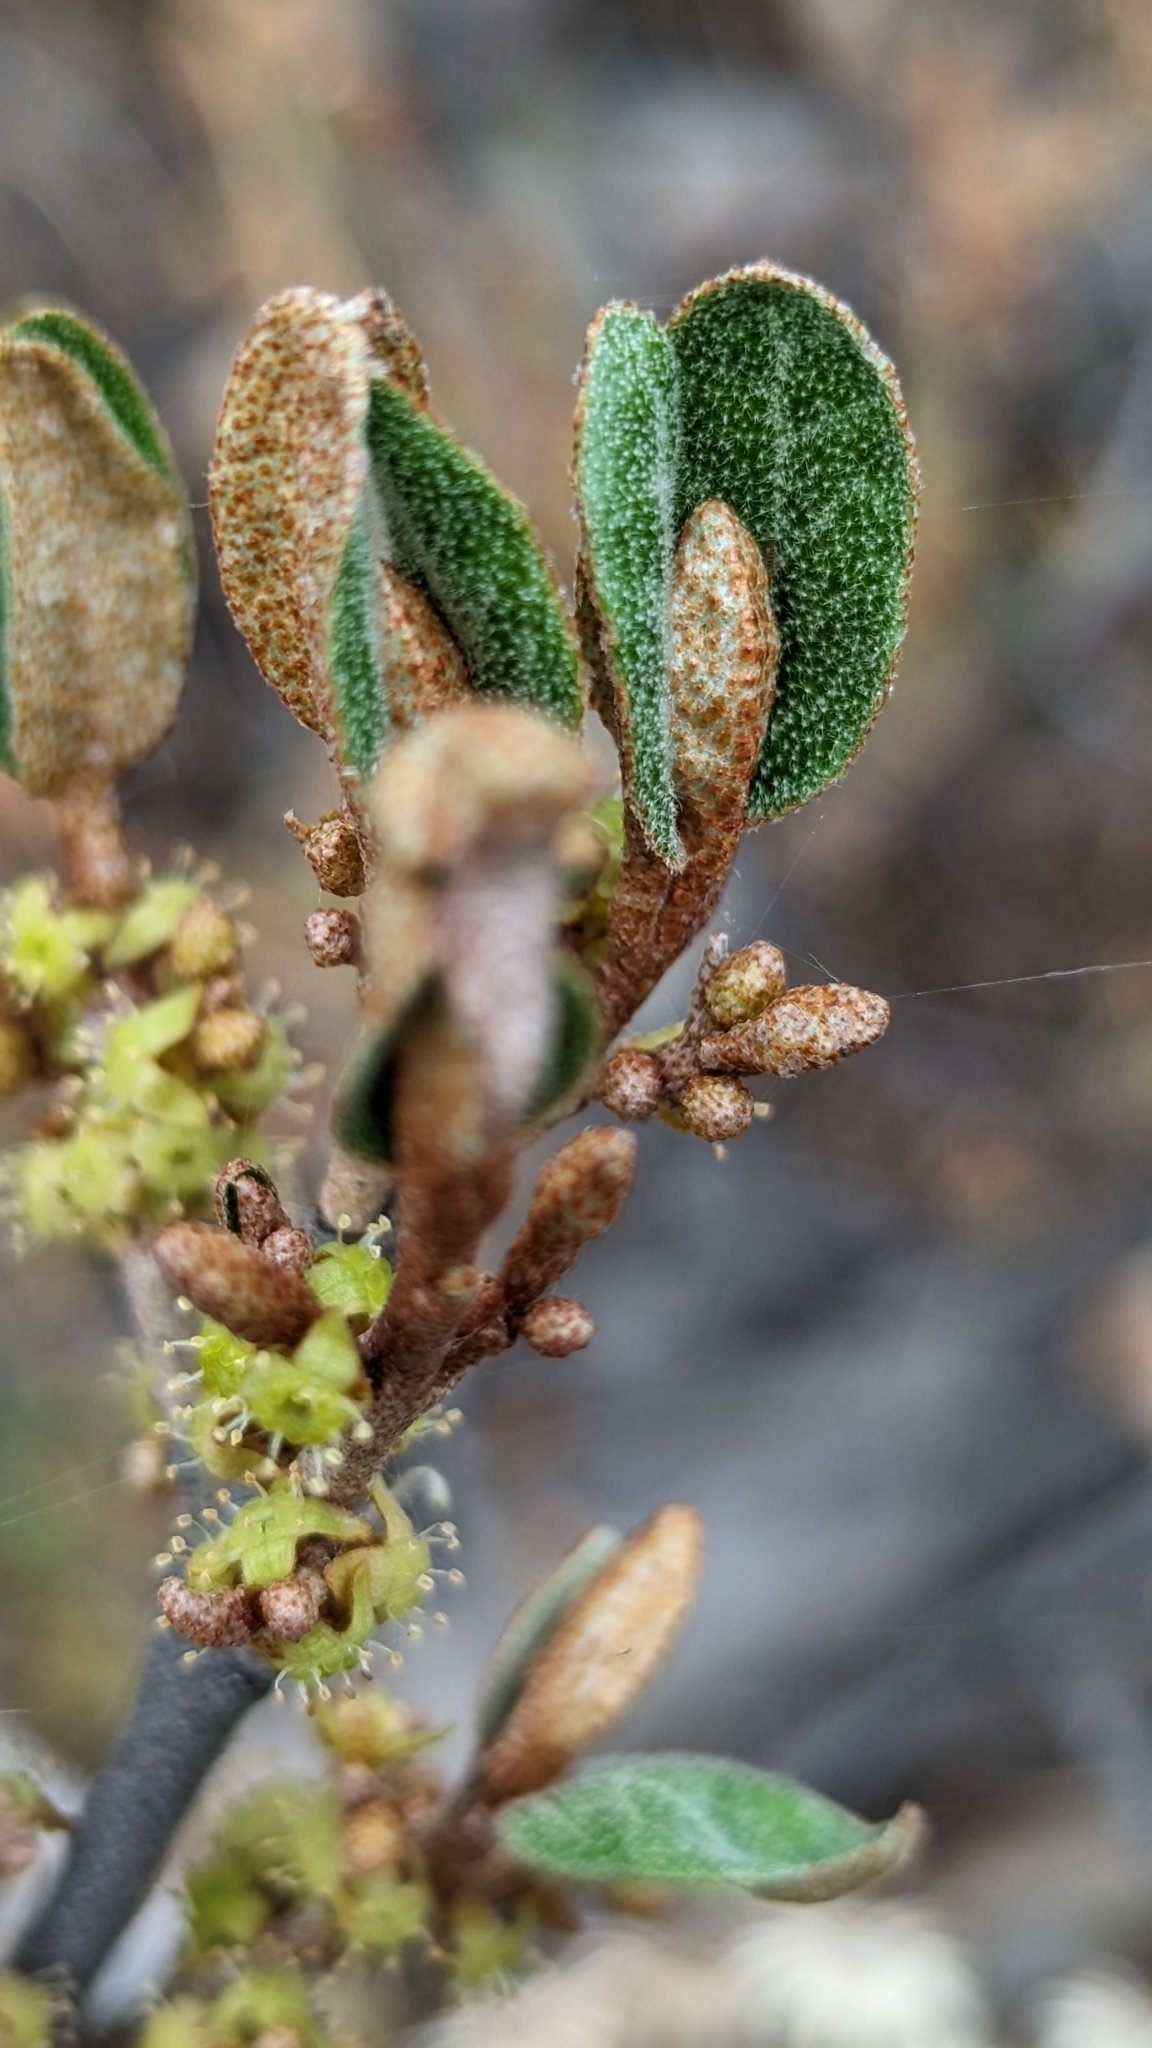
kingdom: Plantae
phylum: Tracheophyta
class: Magnoliopsida
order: Rosales
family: Elaeagnaceae
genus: Shepherdia
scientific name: Shepherdia canadensis
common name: Soapberry
